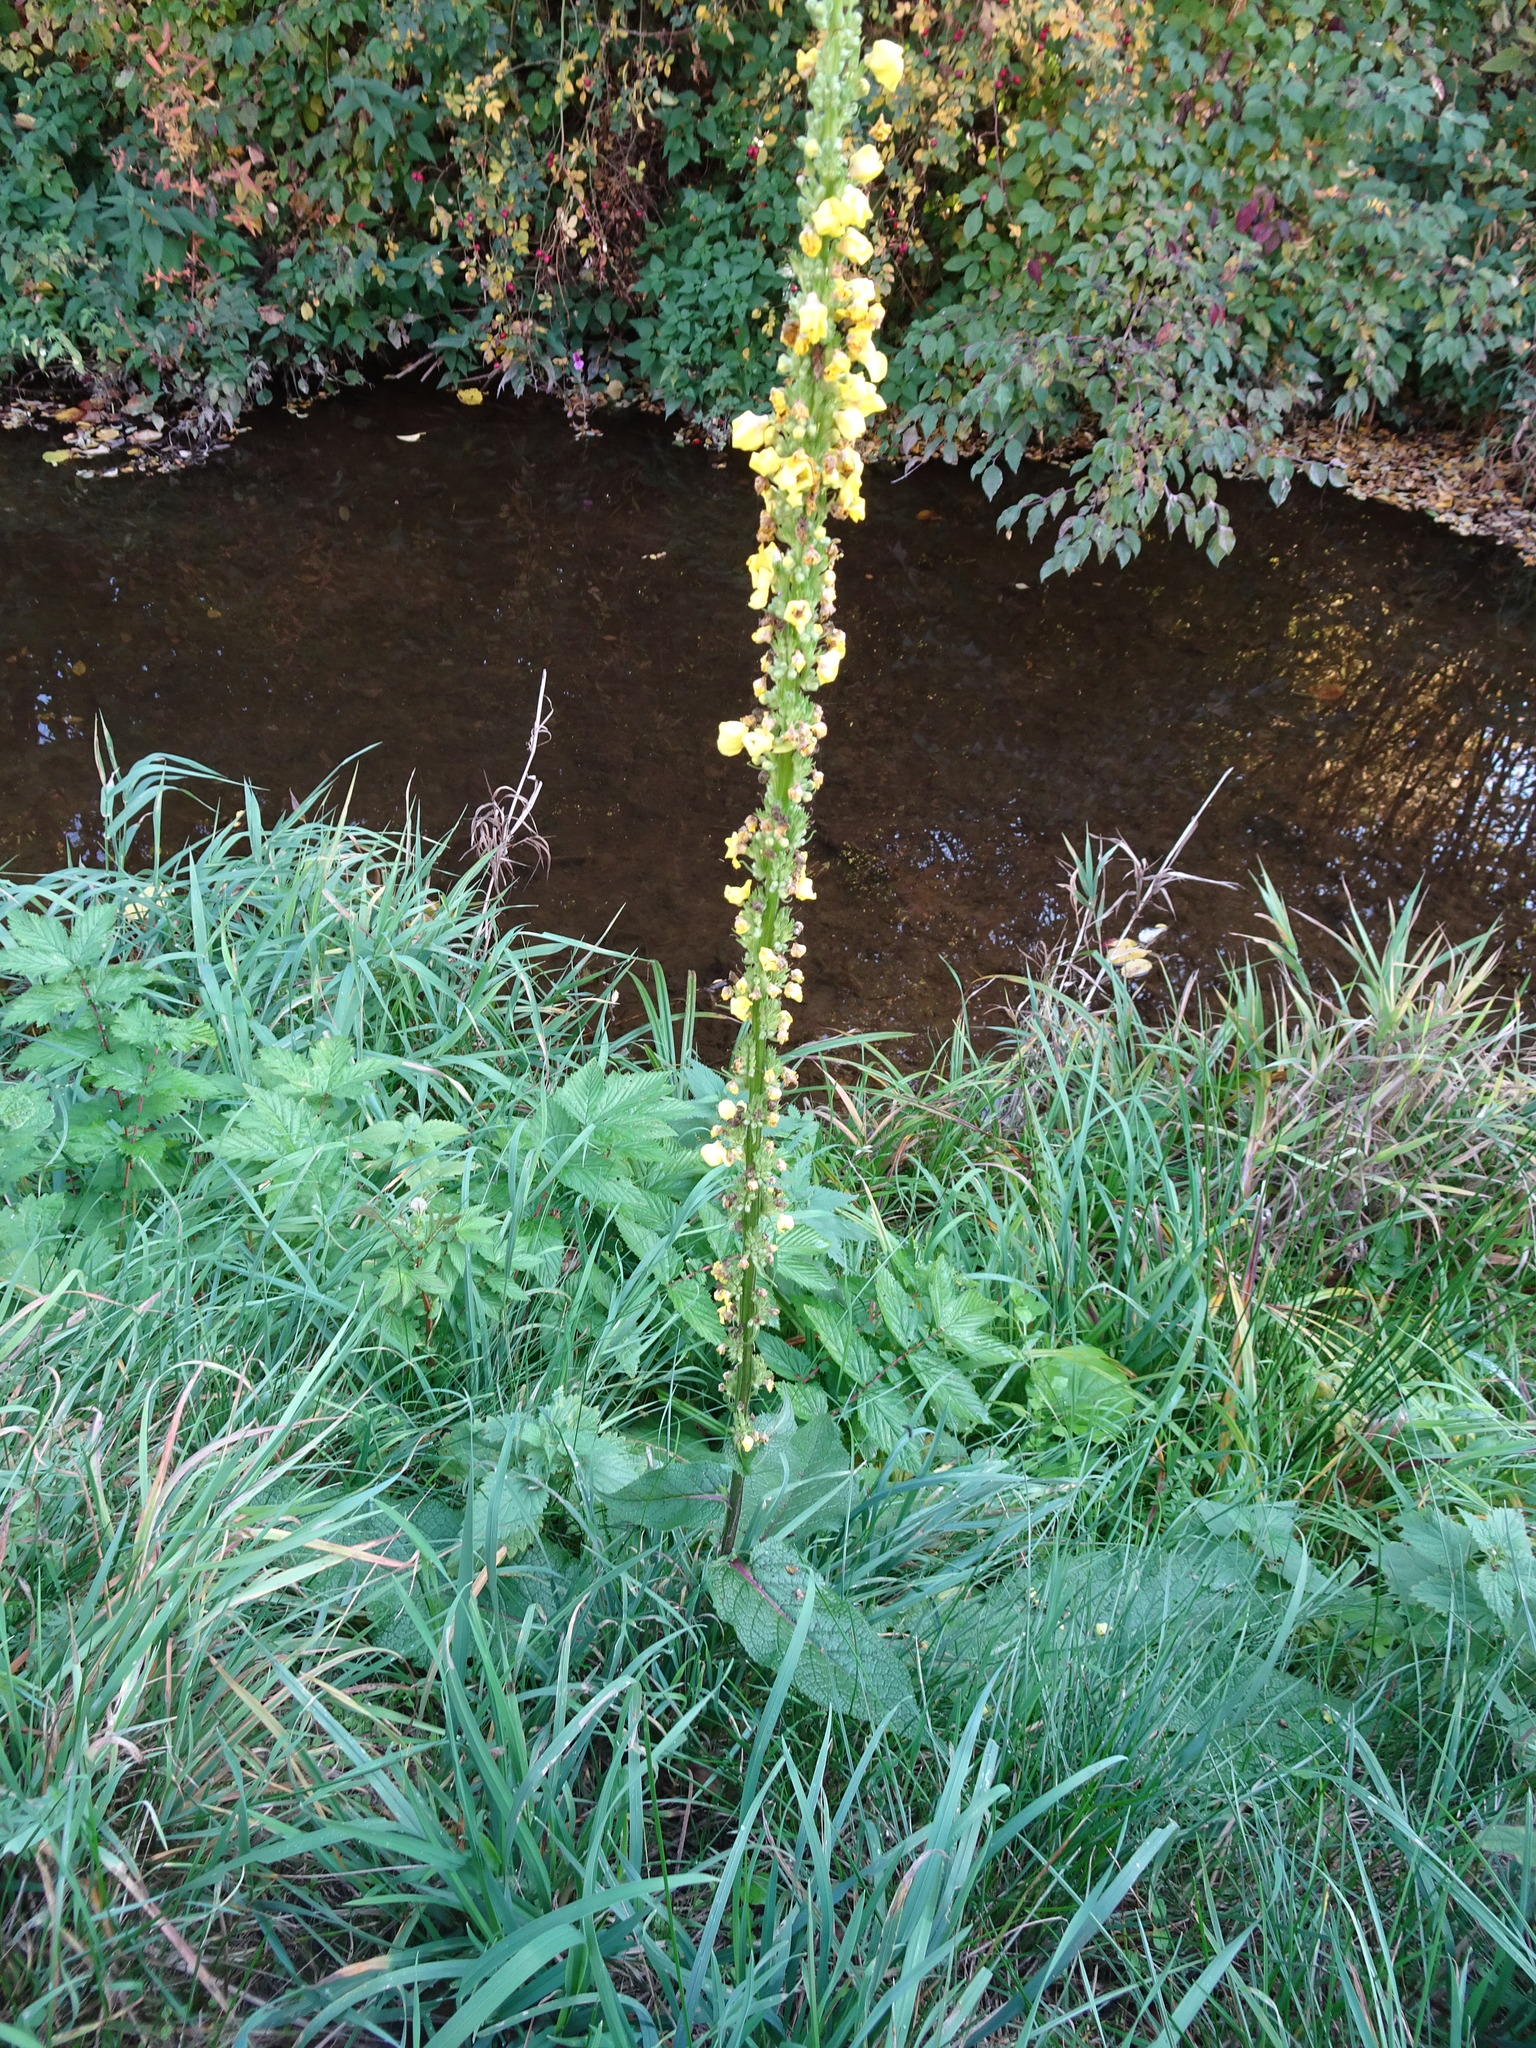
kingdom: Plantae
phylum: Tracheophyta
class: Magnoliopsida
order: Lamiales
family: Scrophulariaceae
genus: Verbascum
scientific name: Verbascum nigrum
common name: Dark mullein
